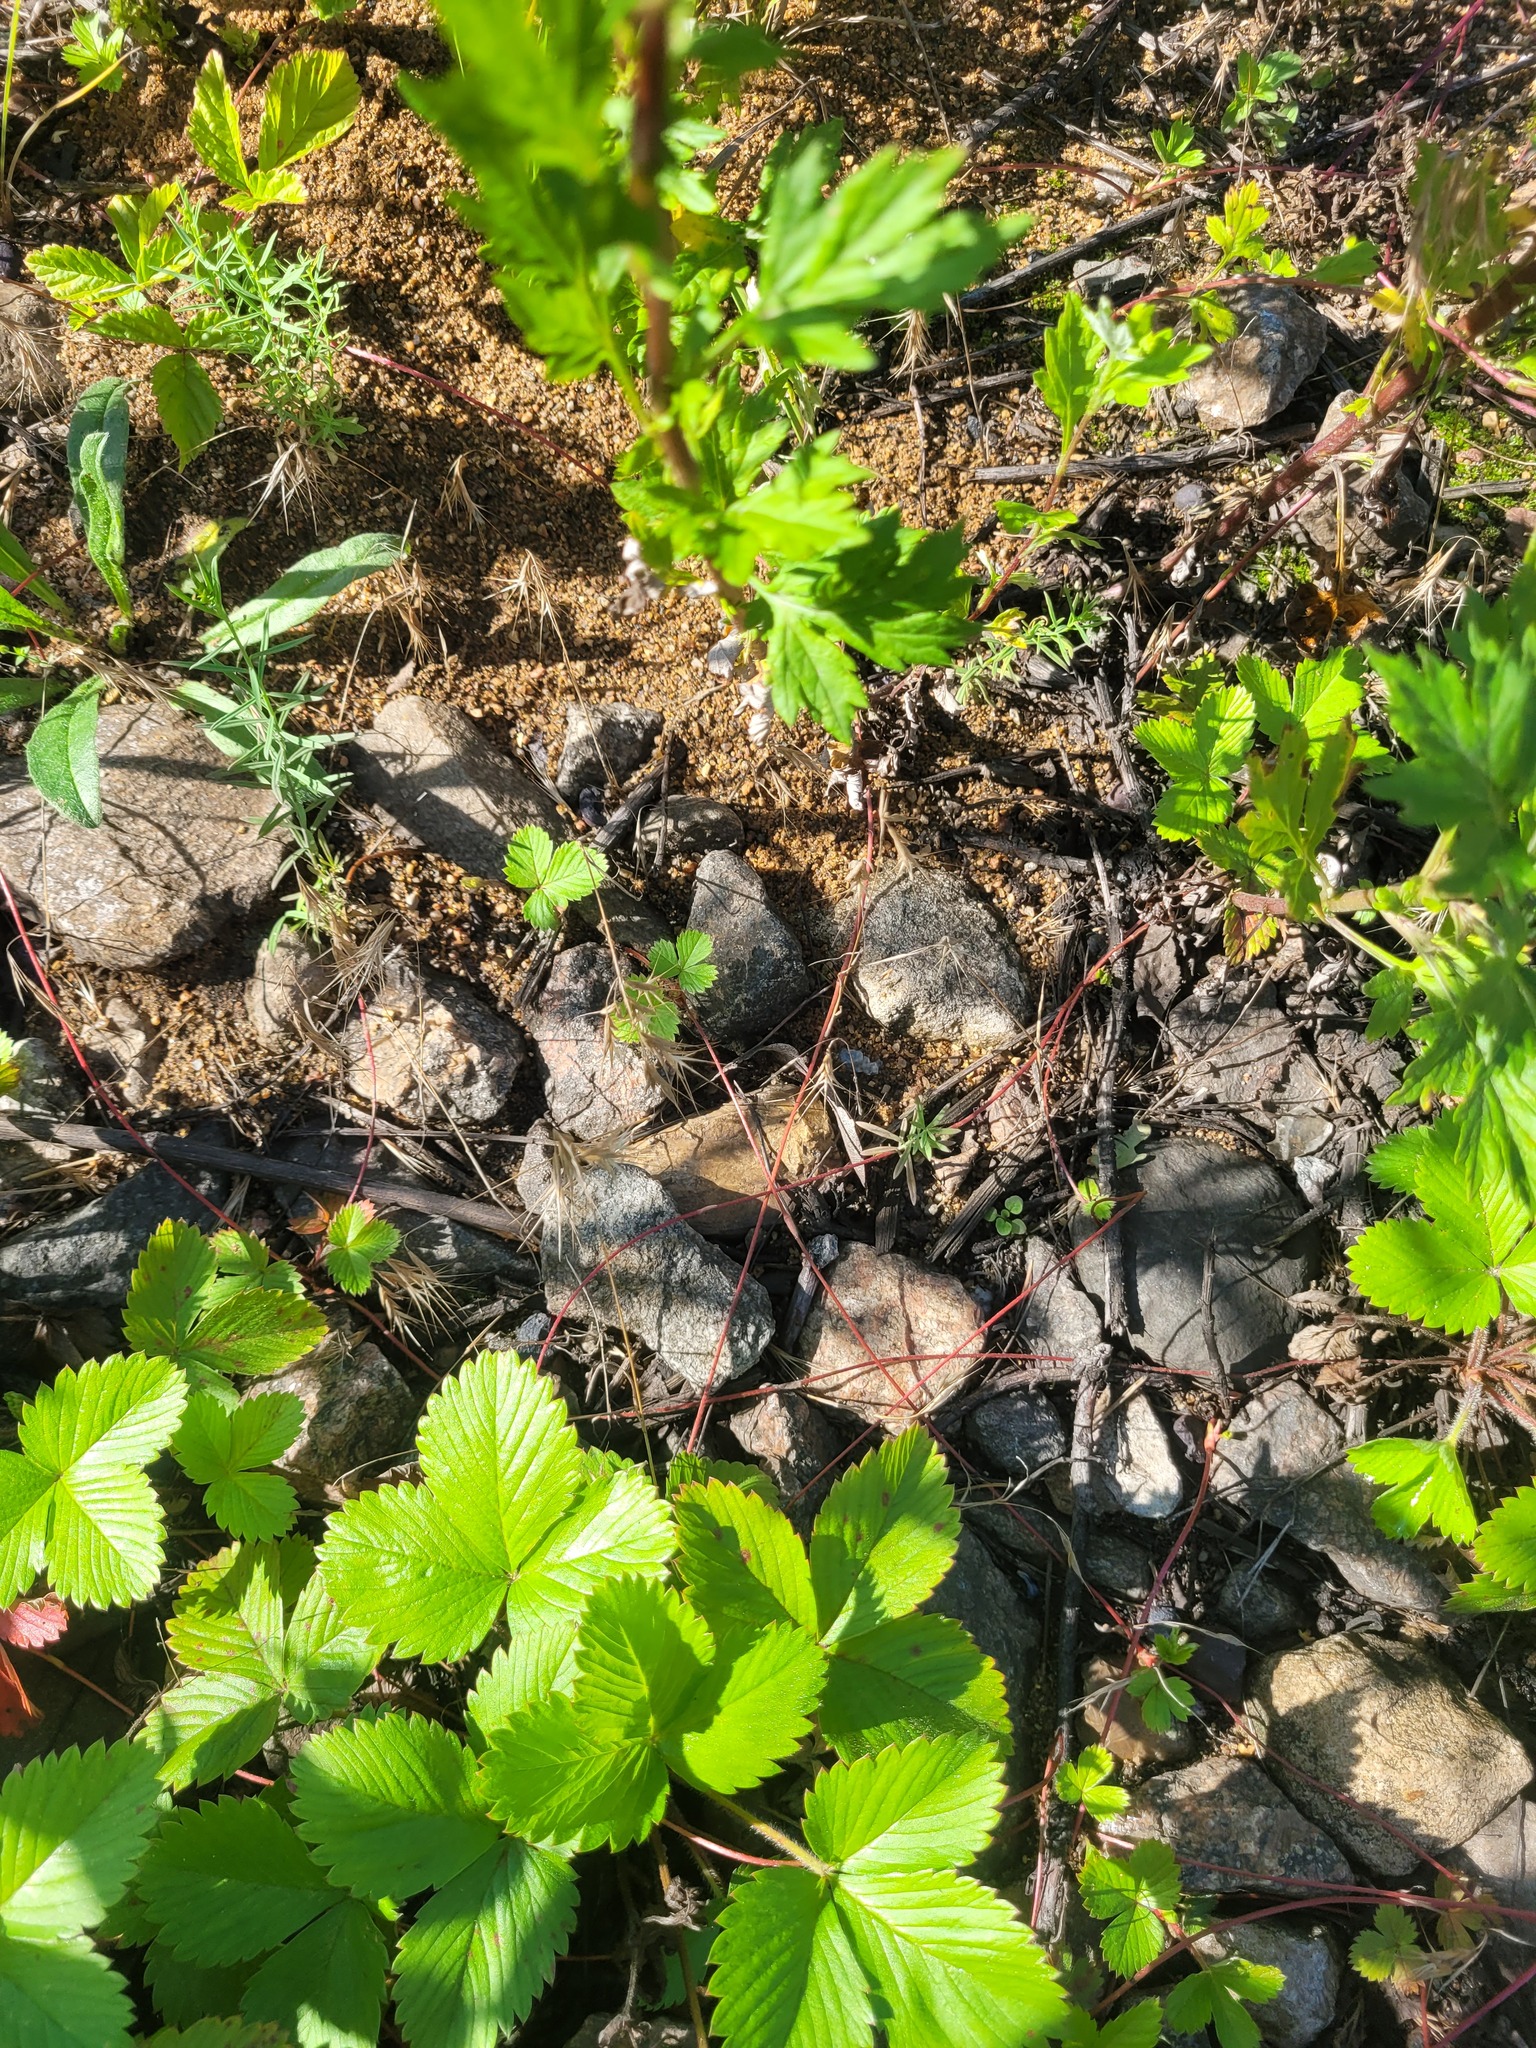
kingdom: Plantae
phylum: Tracheophyta
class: Magnoliopsida
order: Rosales
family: Rosaceae
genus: Fragaria
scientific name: Fragaria vesca
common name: Wild strawberry
